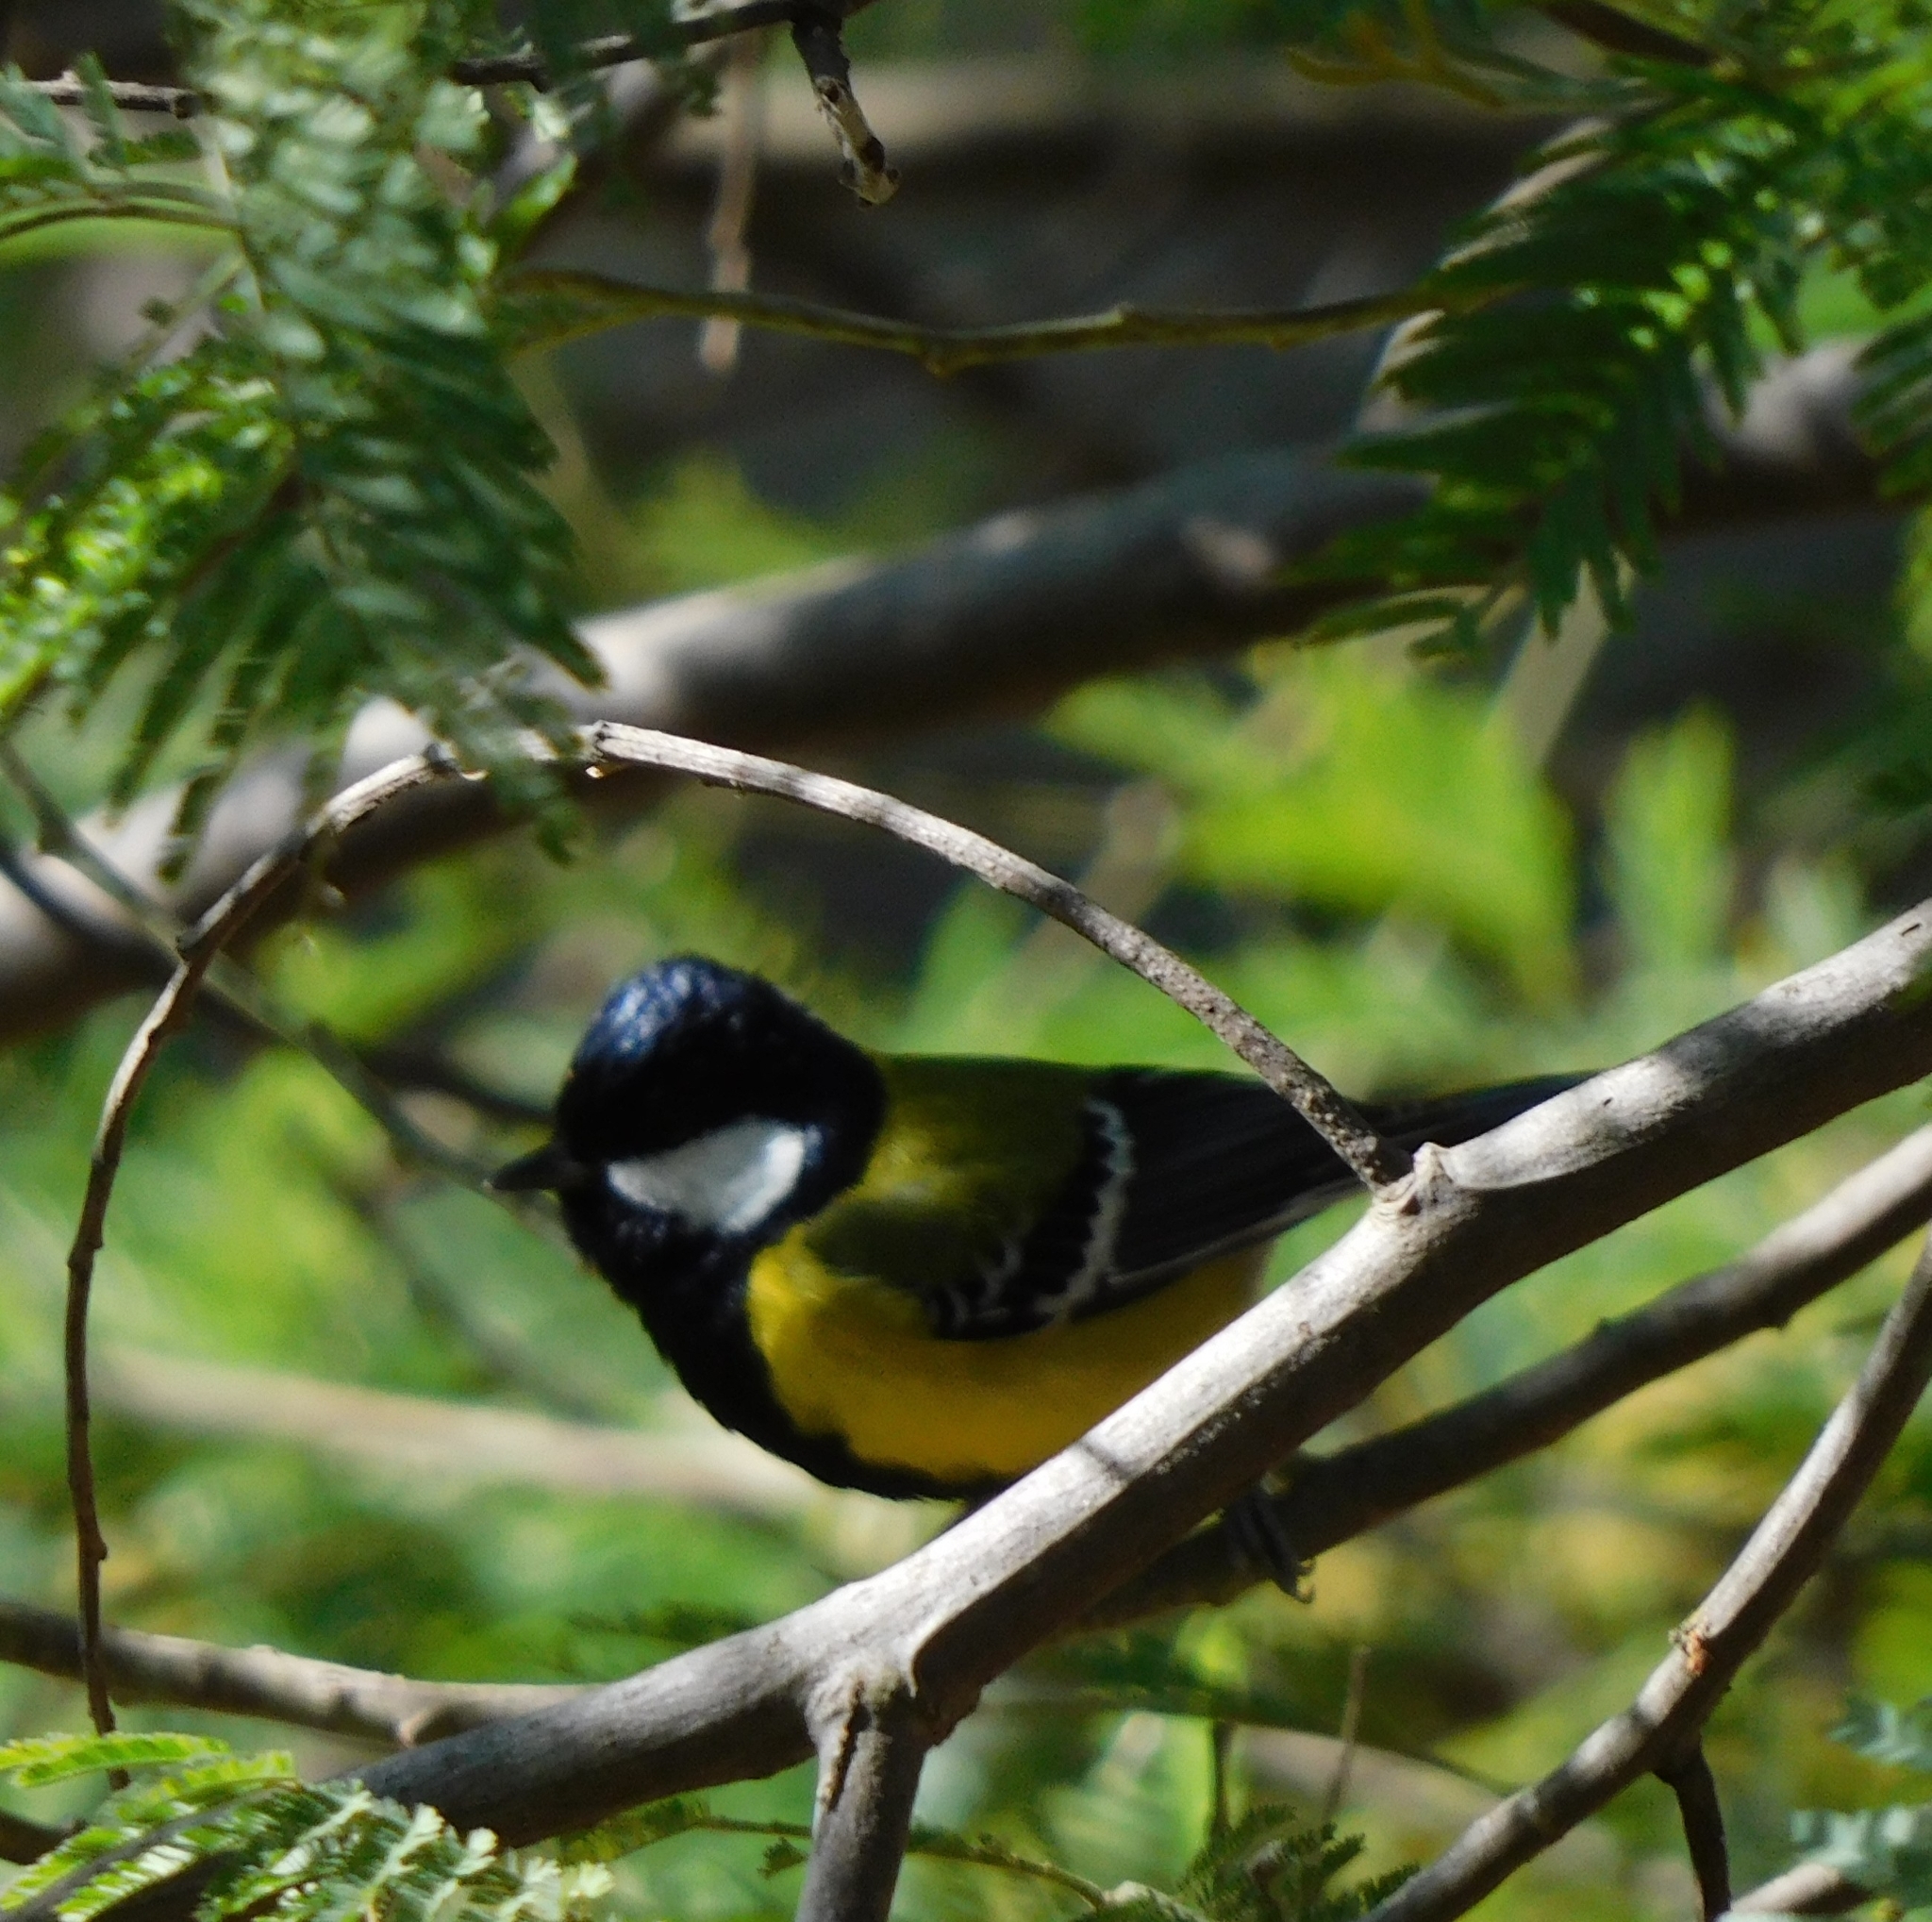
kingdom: Animalia
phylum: Chordata
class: Aves
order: Passeriformes
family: Paridae
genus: Parus
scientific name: Parus monticolus
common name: Green-backed tit
